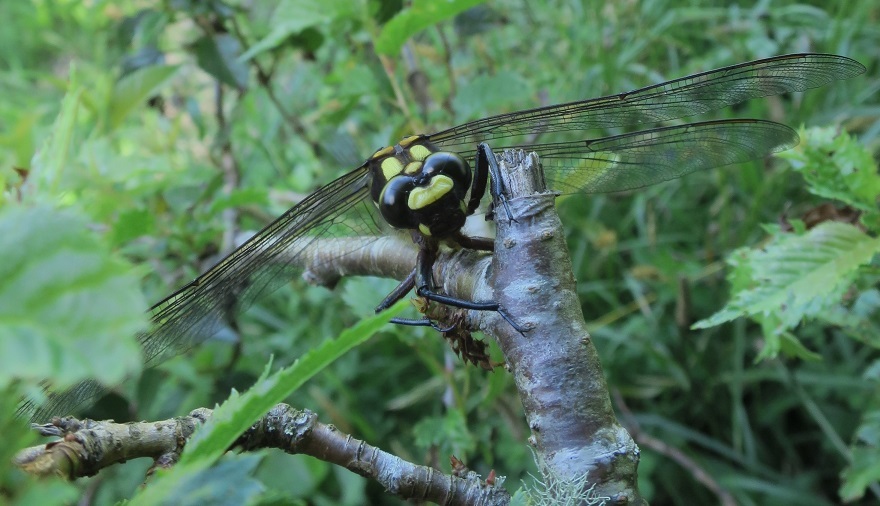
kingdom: Animalia
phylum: Arthropoda
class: Insecta
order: Odonata
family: Petaluridae
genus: Uropetala
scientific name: Uropetala carovei
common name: Bush giant dragonfly
